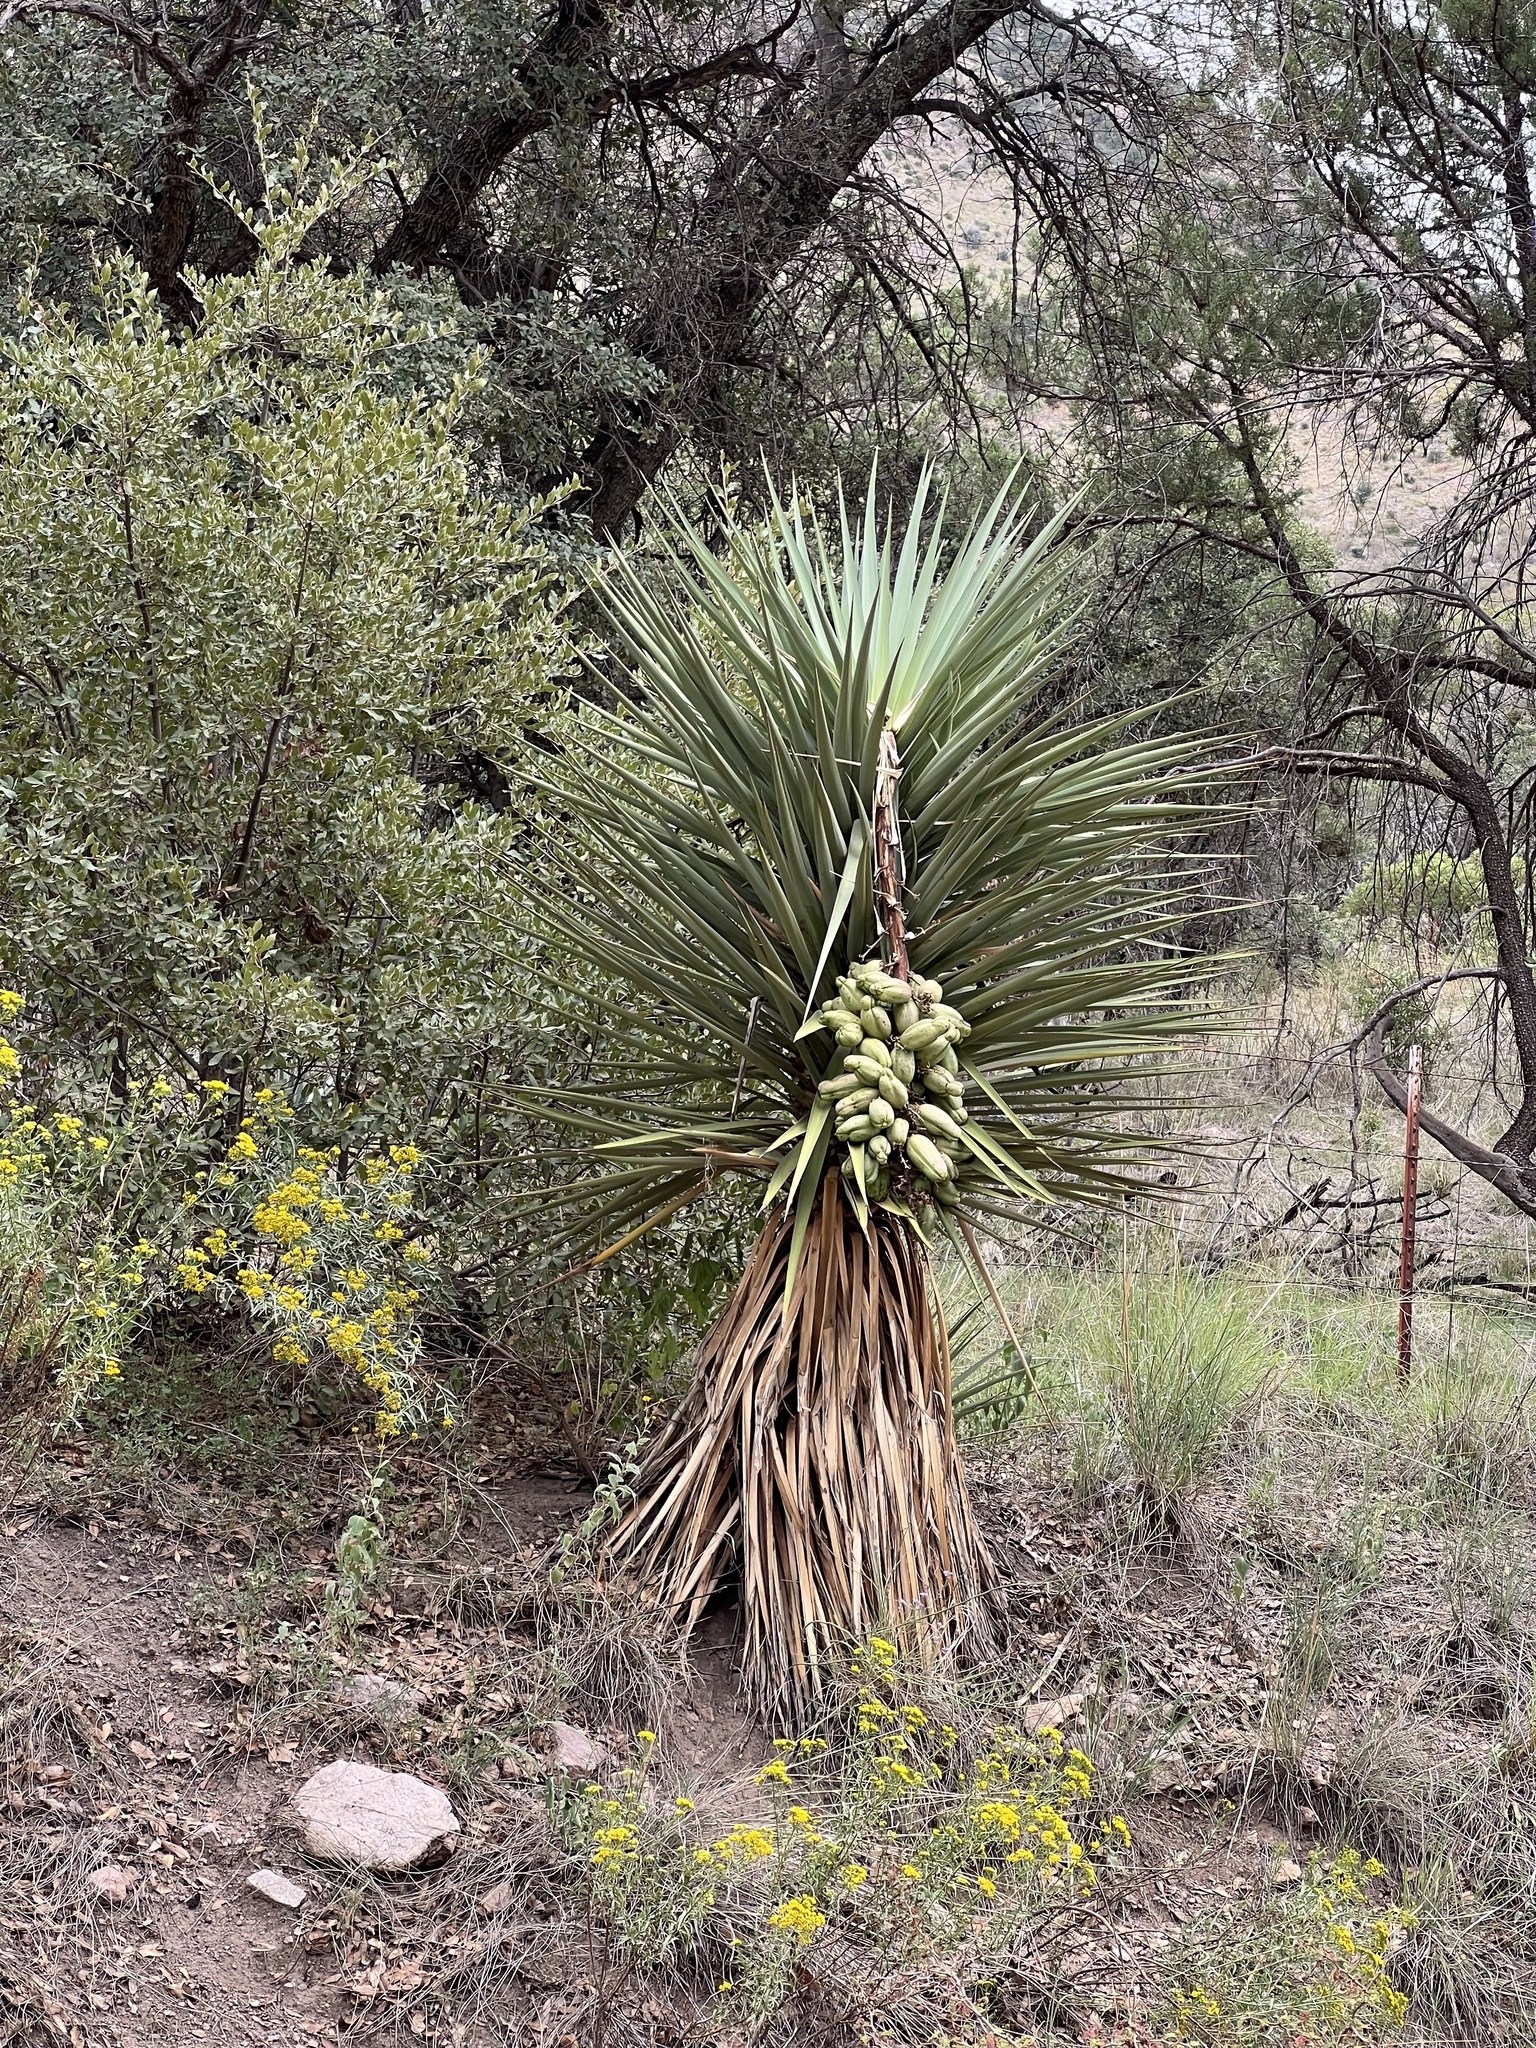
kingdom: Plantae
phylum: Tracheophyta
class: Liliopsida
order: Asparagales
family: Asparagaceae
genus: Yucca
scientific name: Yucca madrensis
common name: Hoary yucca
